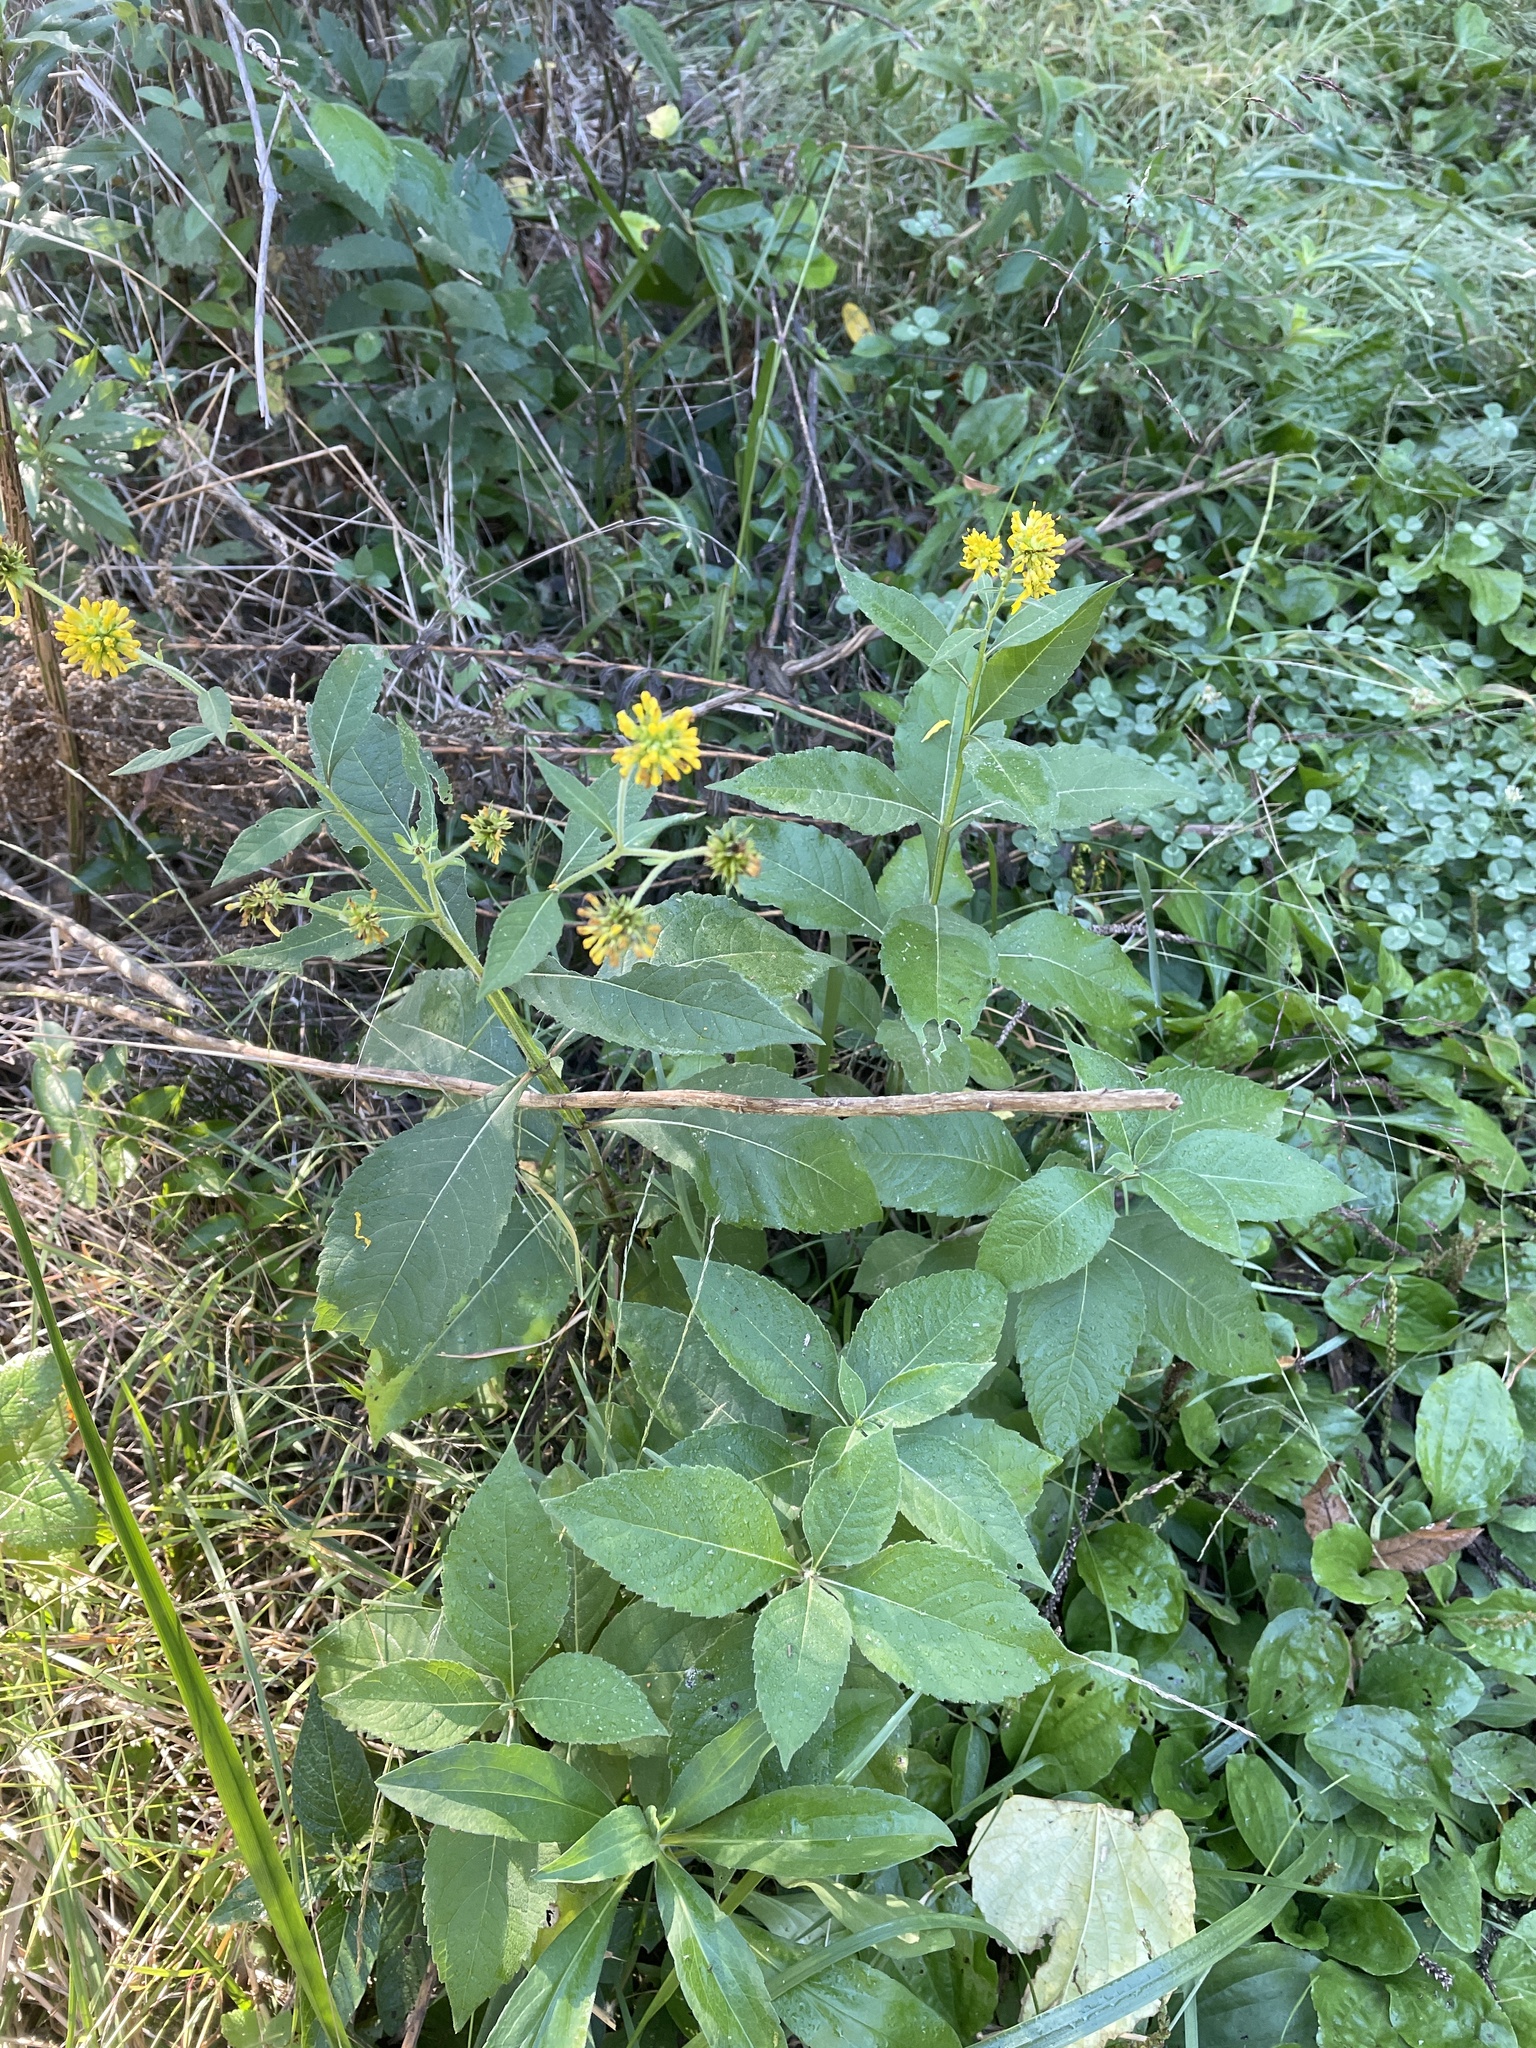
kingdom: Plantae
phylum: Tracheophyta
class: Magnoliopsida
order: Asterales
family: Asteraceae
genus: Verbesina
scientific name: Verbesina alternifolia
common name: Wingstem
